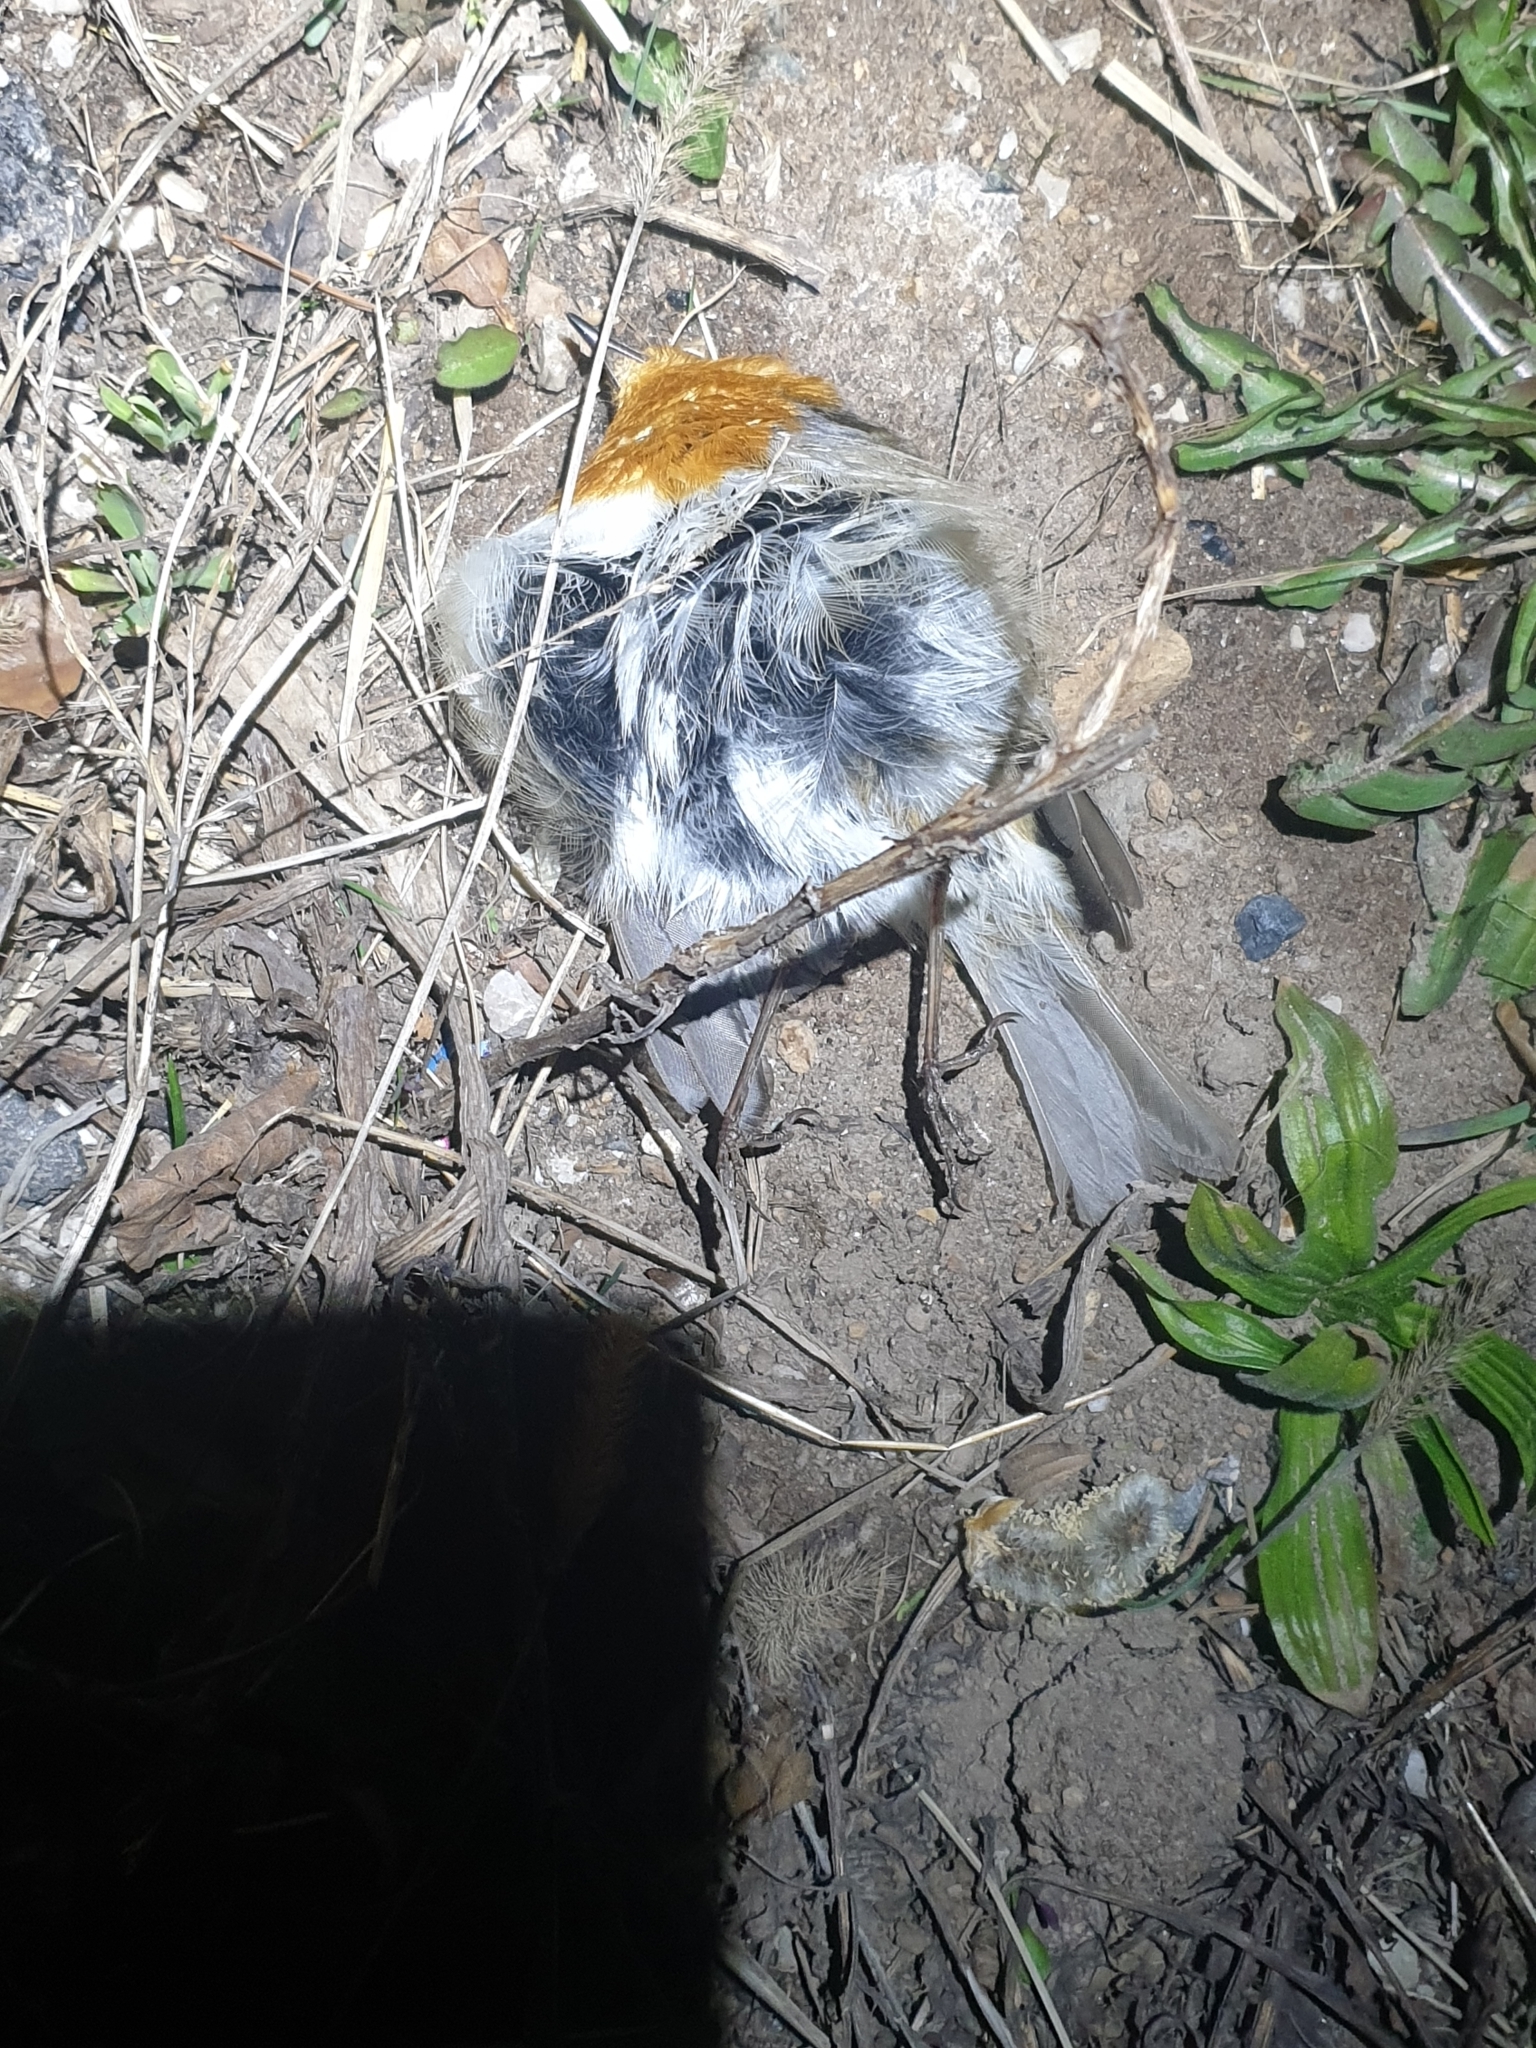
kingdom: Animalia
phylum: Chordata
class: Aves
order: Passeriformes
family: Muscicapidae
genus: Erithacus
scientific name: Erithacus rubecula
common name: European robin
